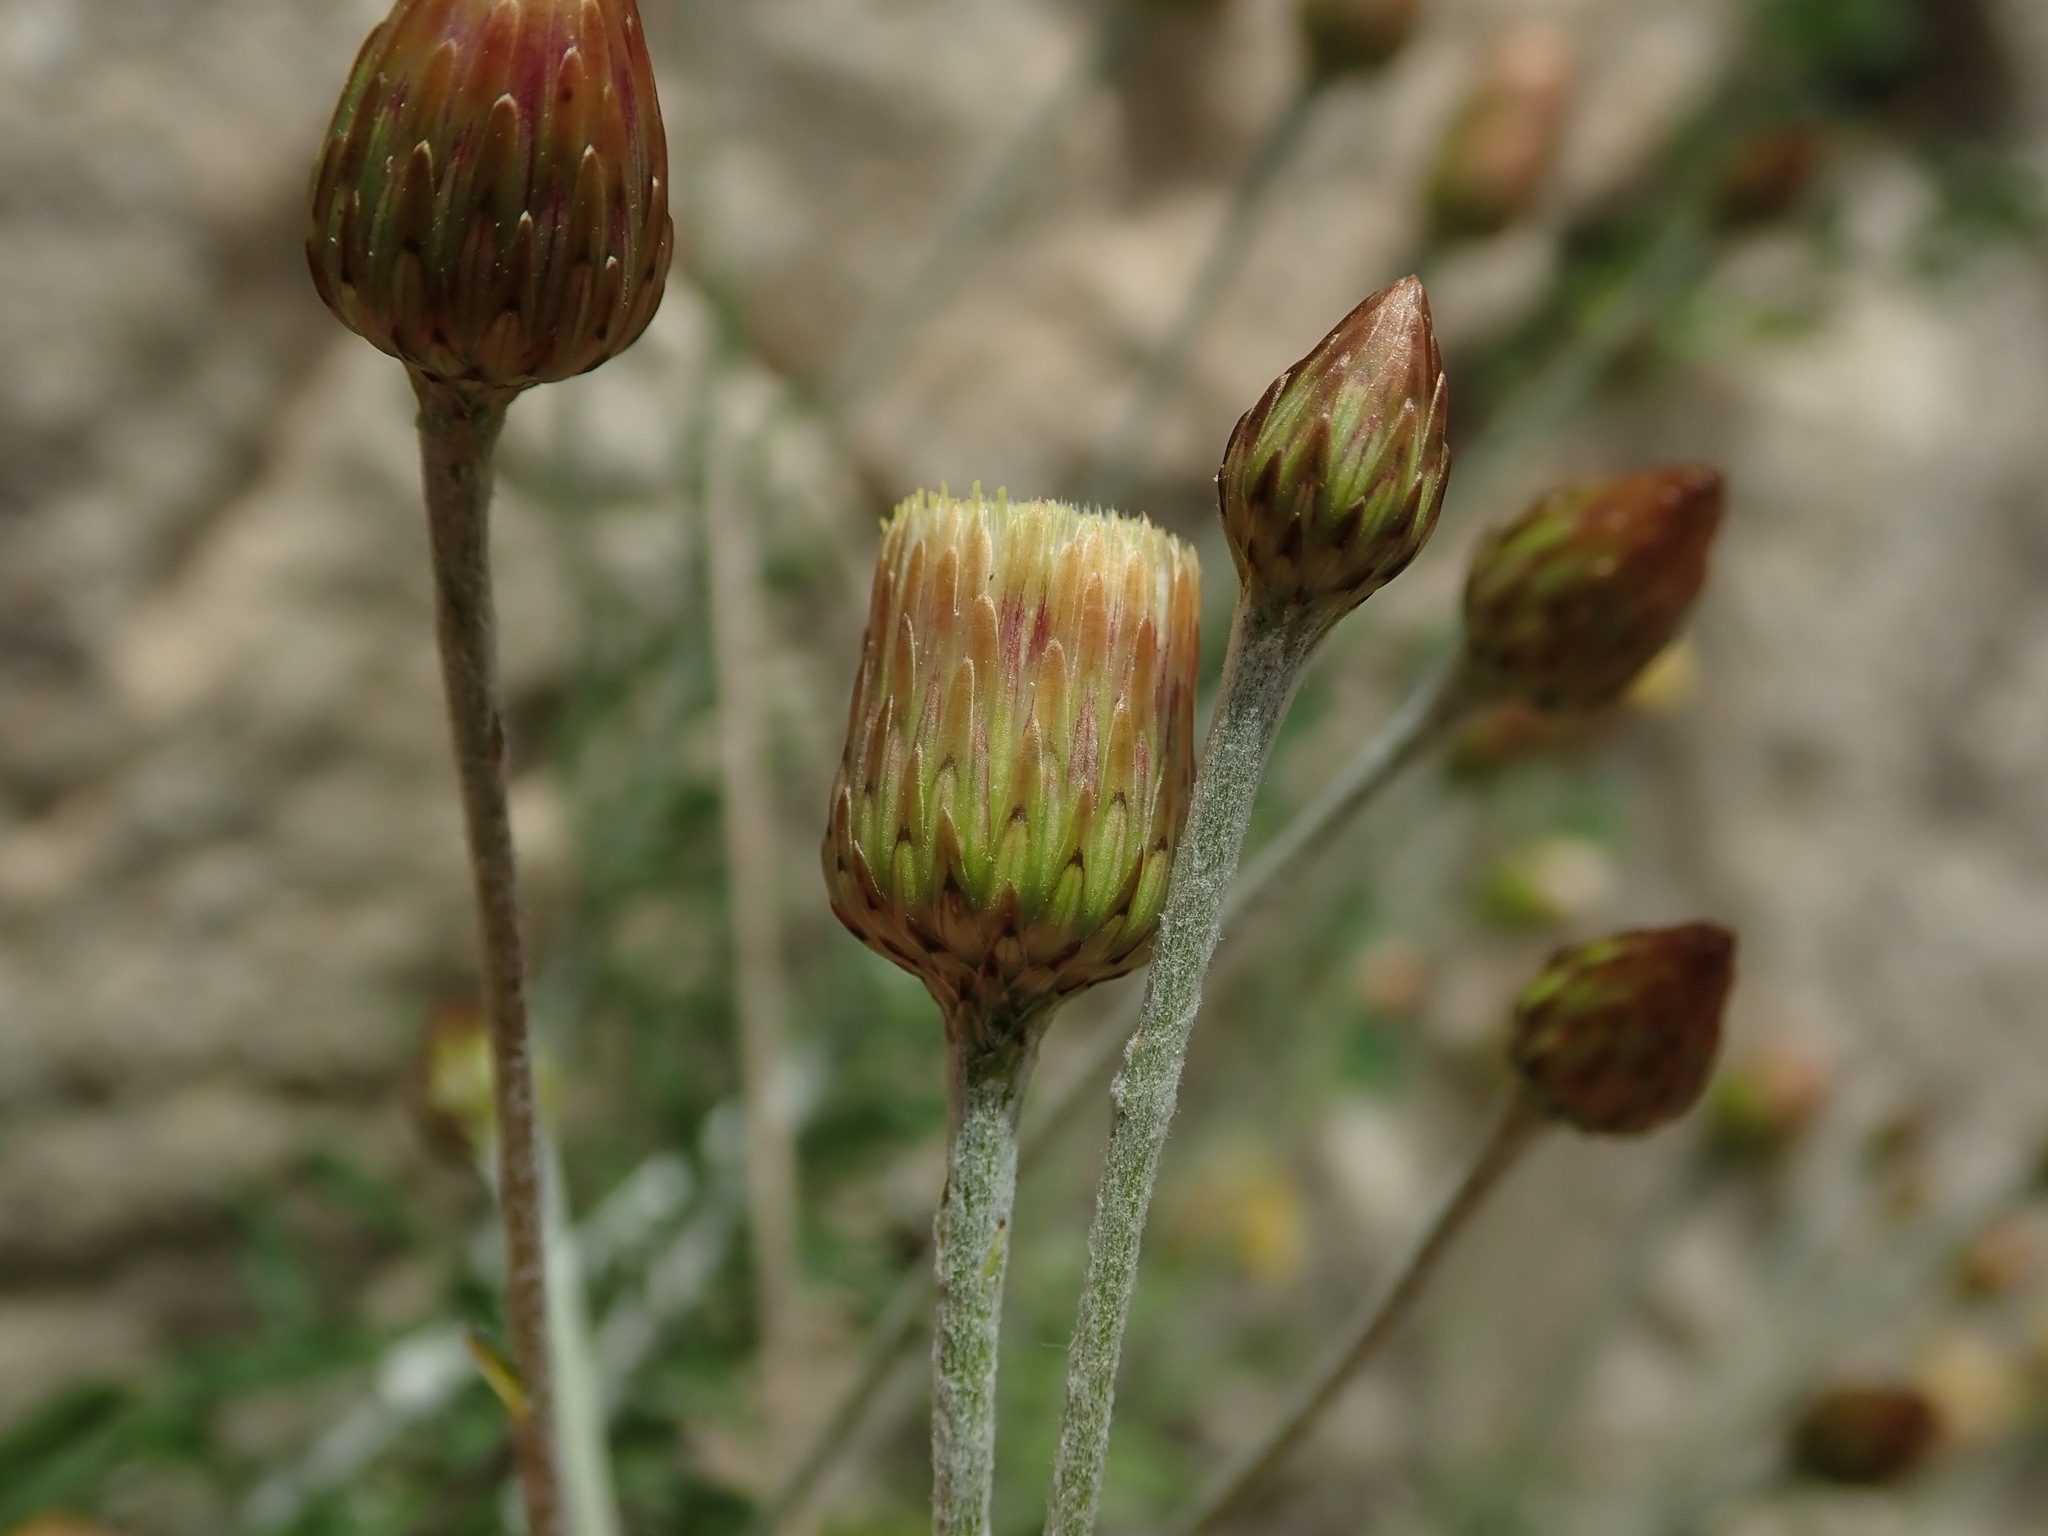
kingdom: Plantae
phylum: Tracheophyta
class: Magnoliopsida
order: Asterales
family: Asteraceae
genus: Phagnalon
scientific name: Phagnalon rupestre
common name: Rock phagnalon
